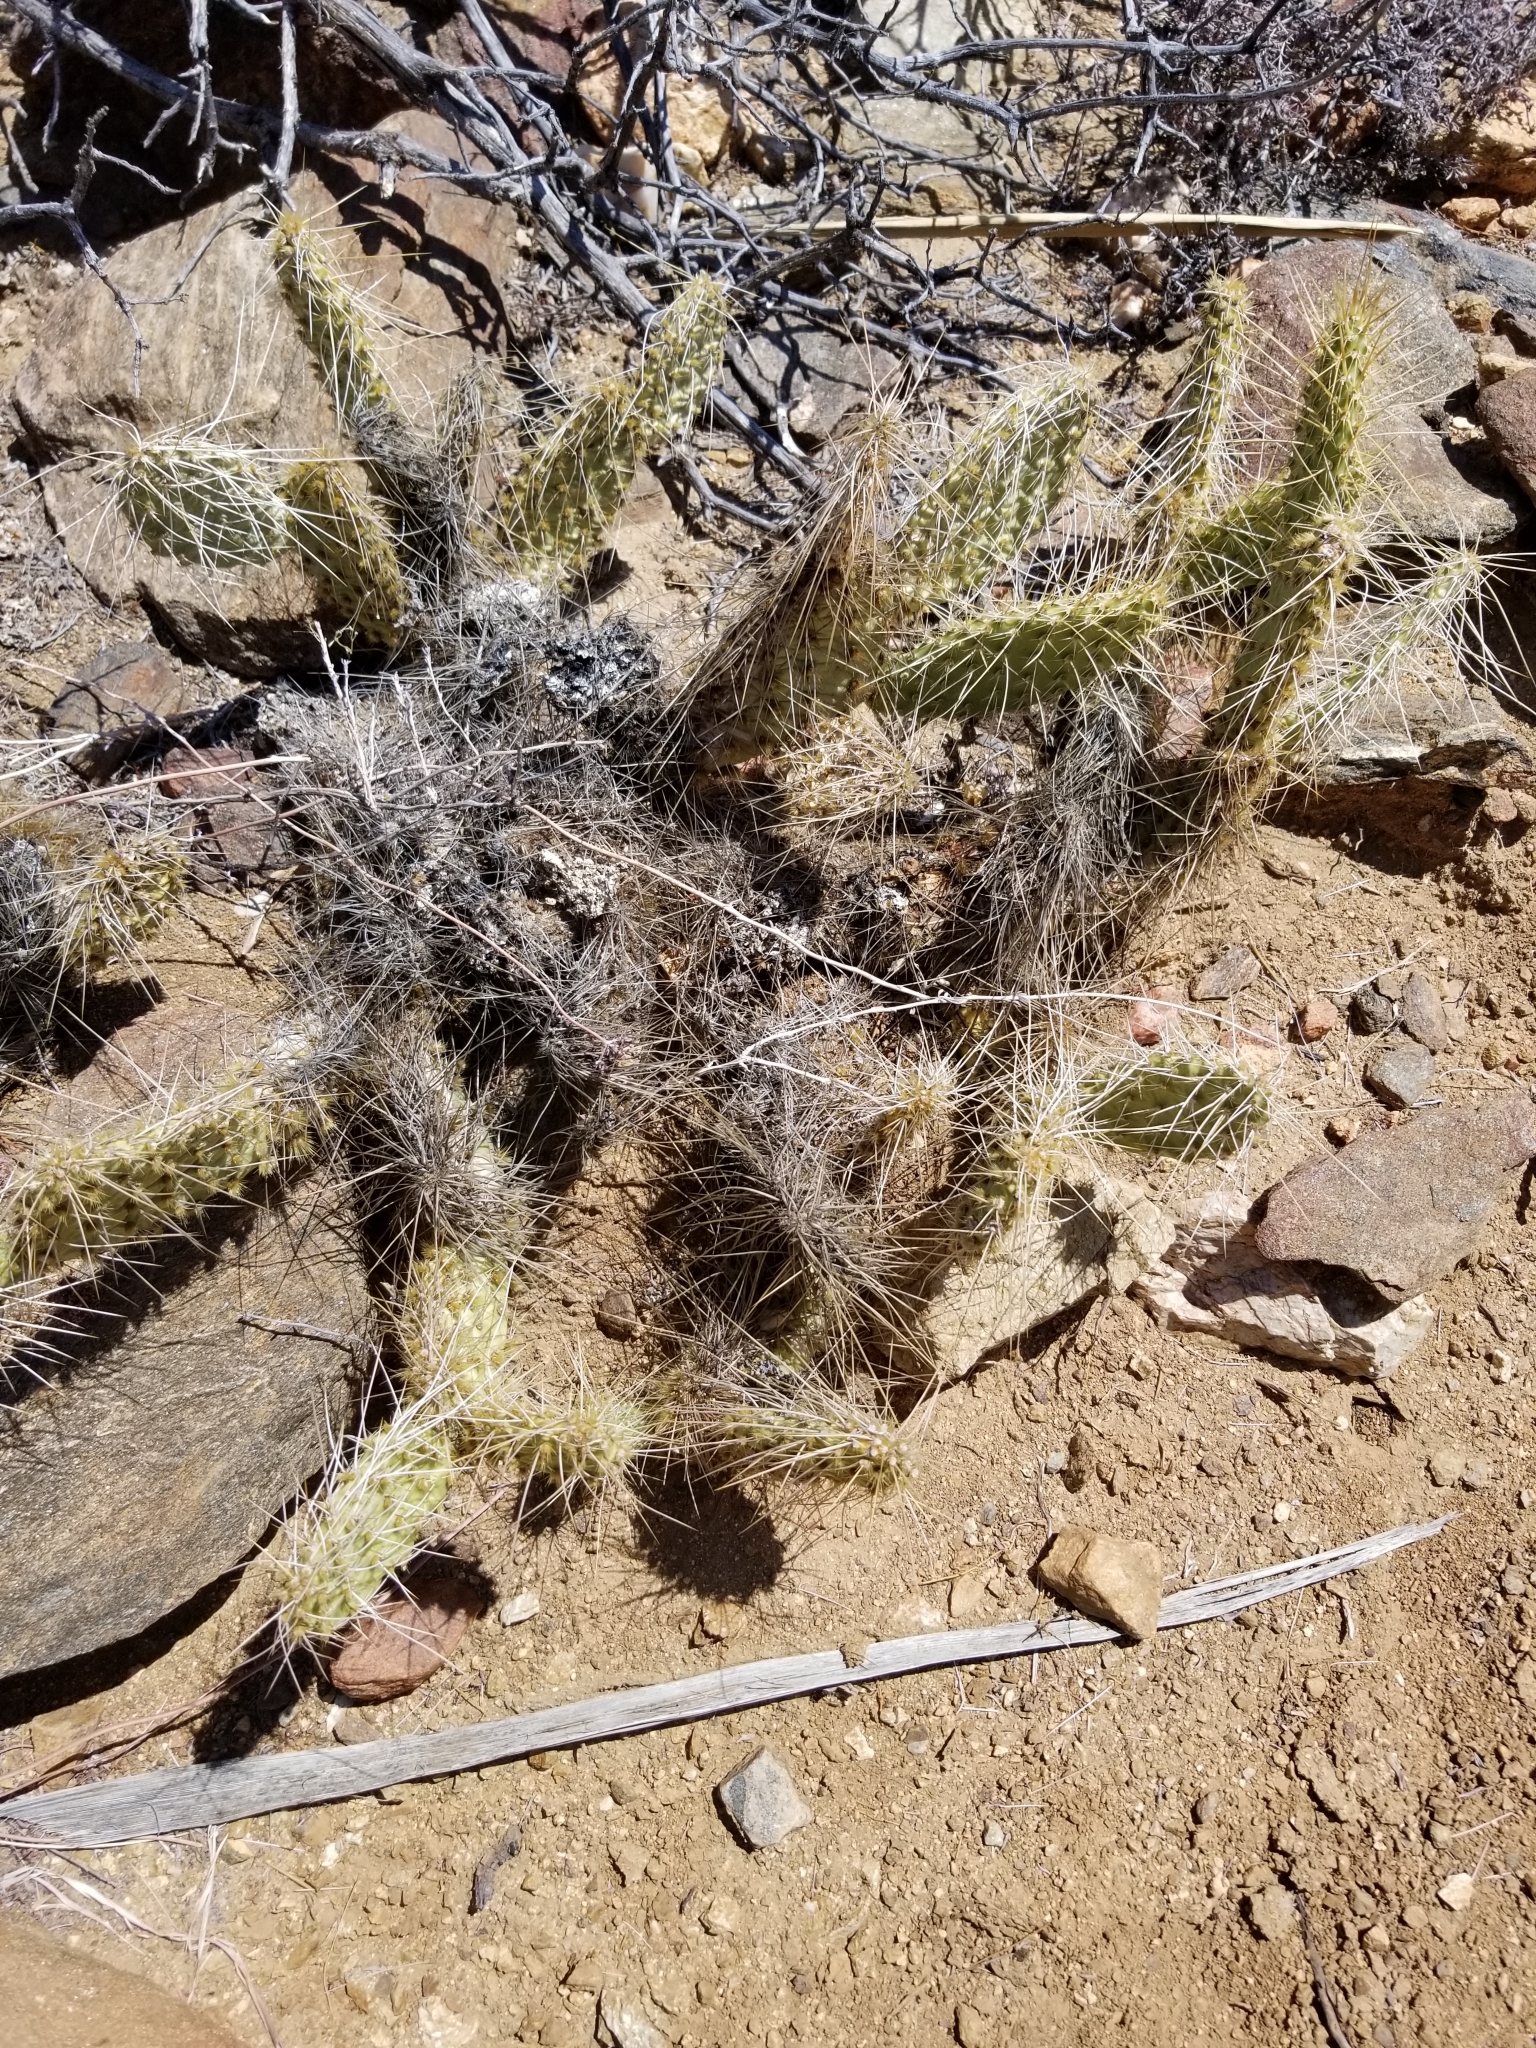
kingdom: Plantae
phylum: Tracheophyta
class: Magnoliopsida
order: Caryophyllales
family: Cactaceae
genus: Opuntia
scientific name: Opuntia polyacantha
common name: Plains prickly-pear
